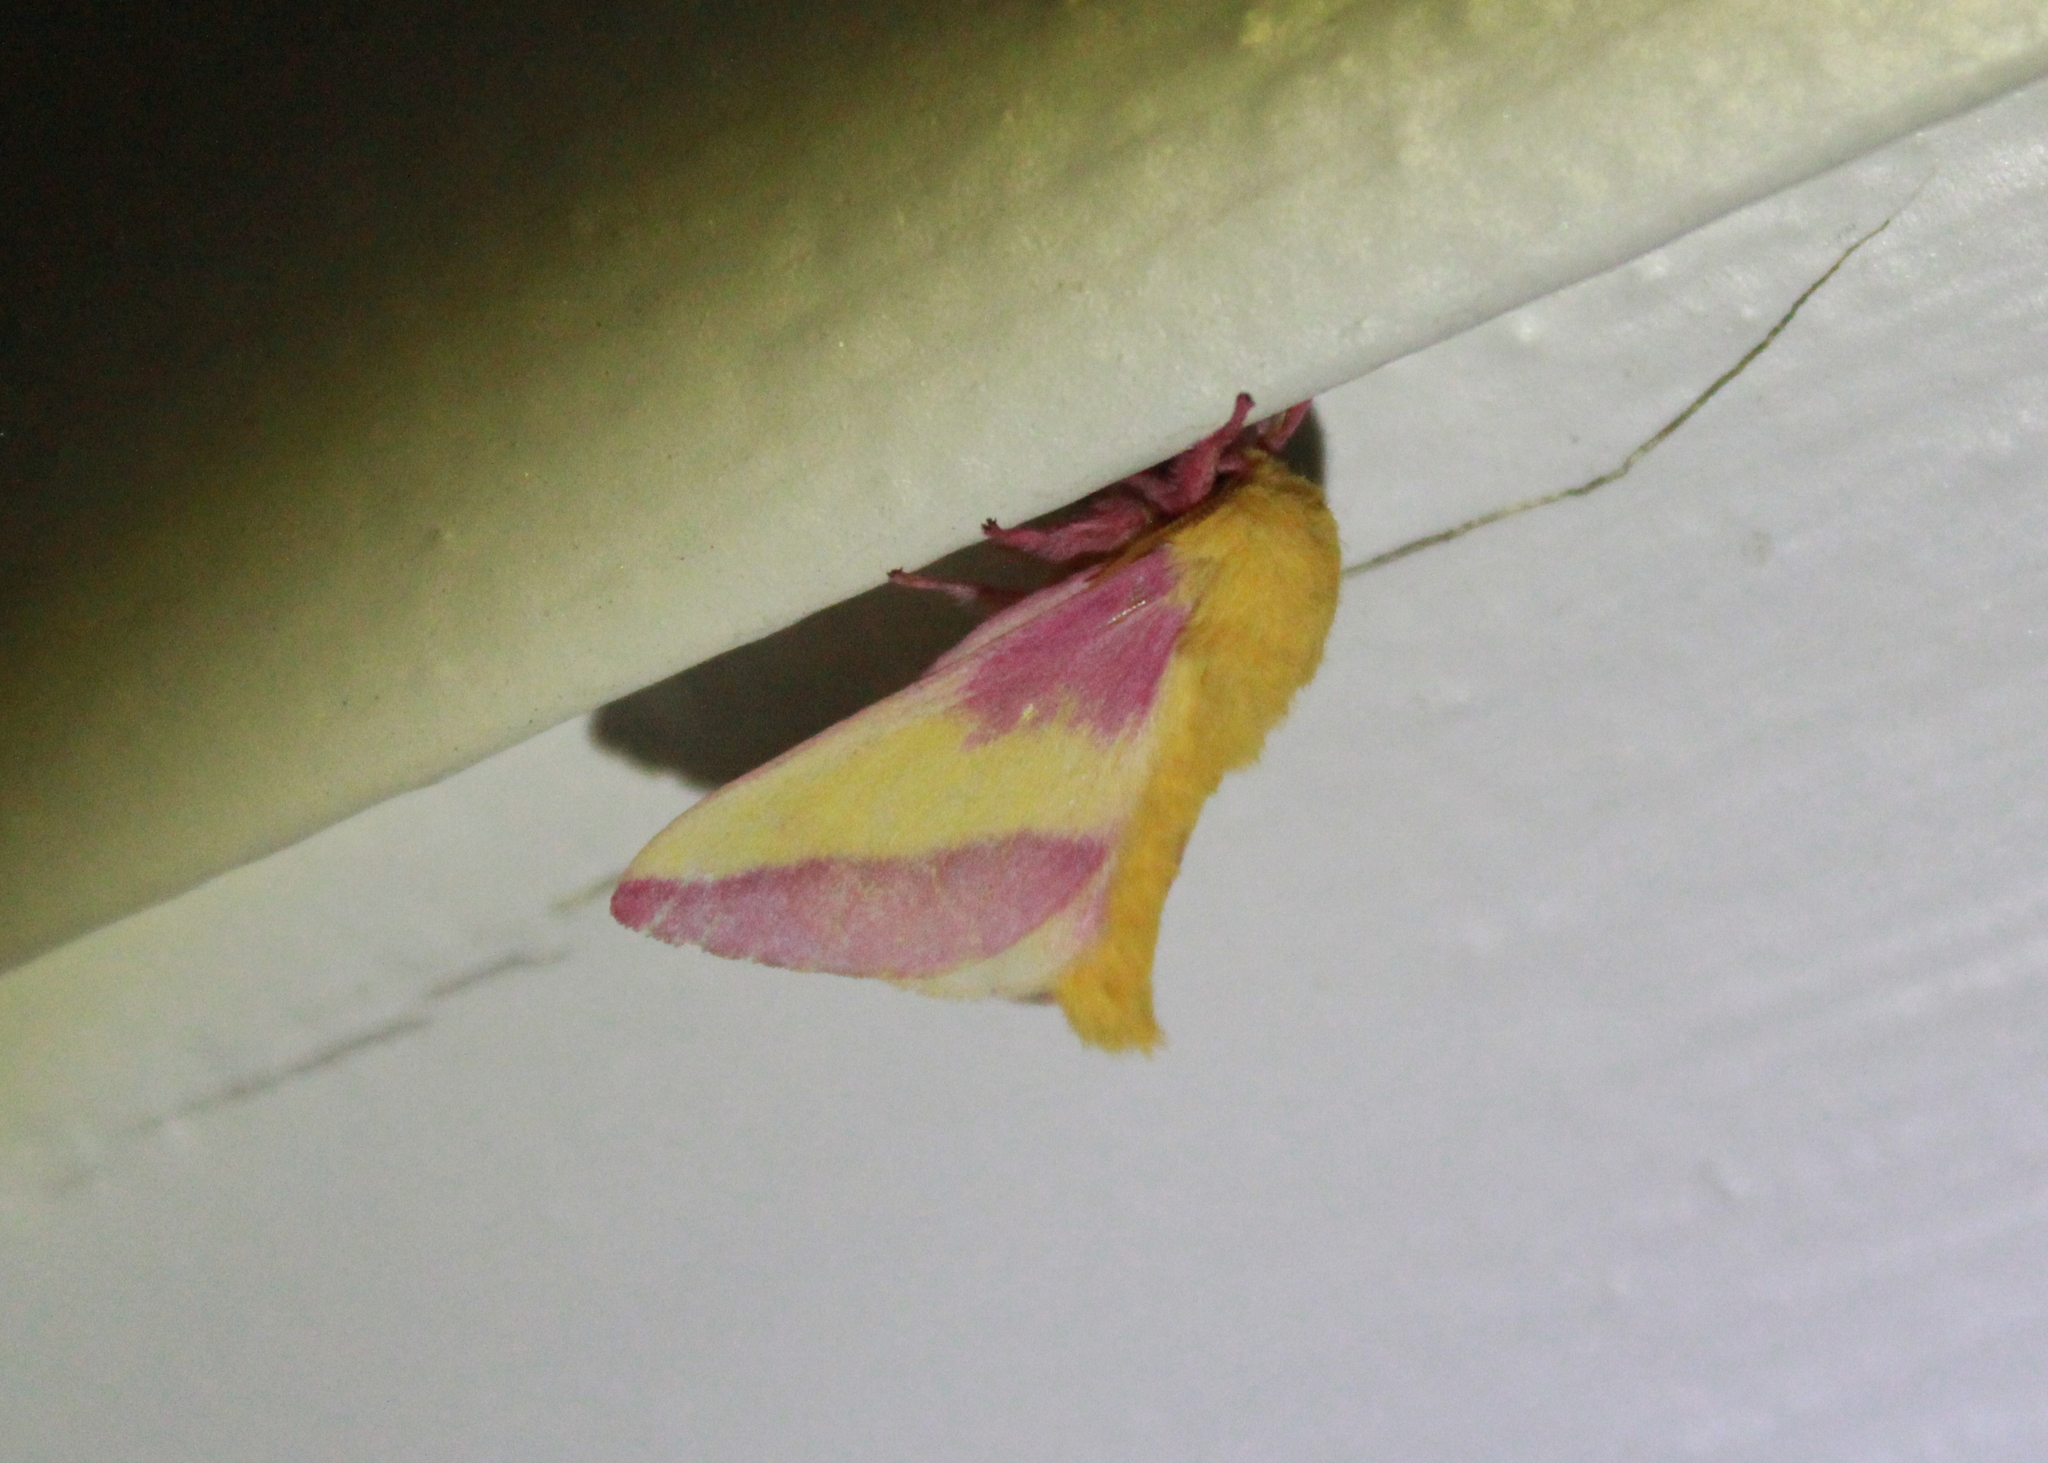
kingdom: Animalia
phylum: Arthropoda
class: Insecta
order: Lepidoptera
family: Saturniidae
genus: Dryocampa
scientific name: Dryocampa rubicunda
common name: Rosy maple moth
